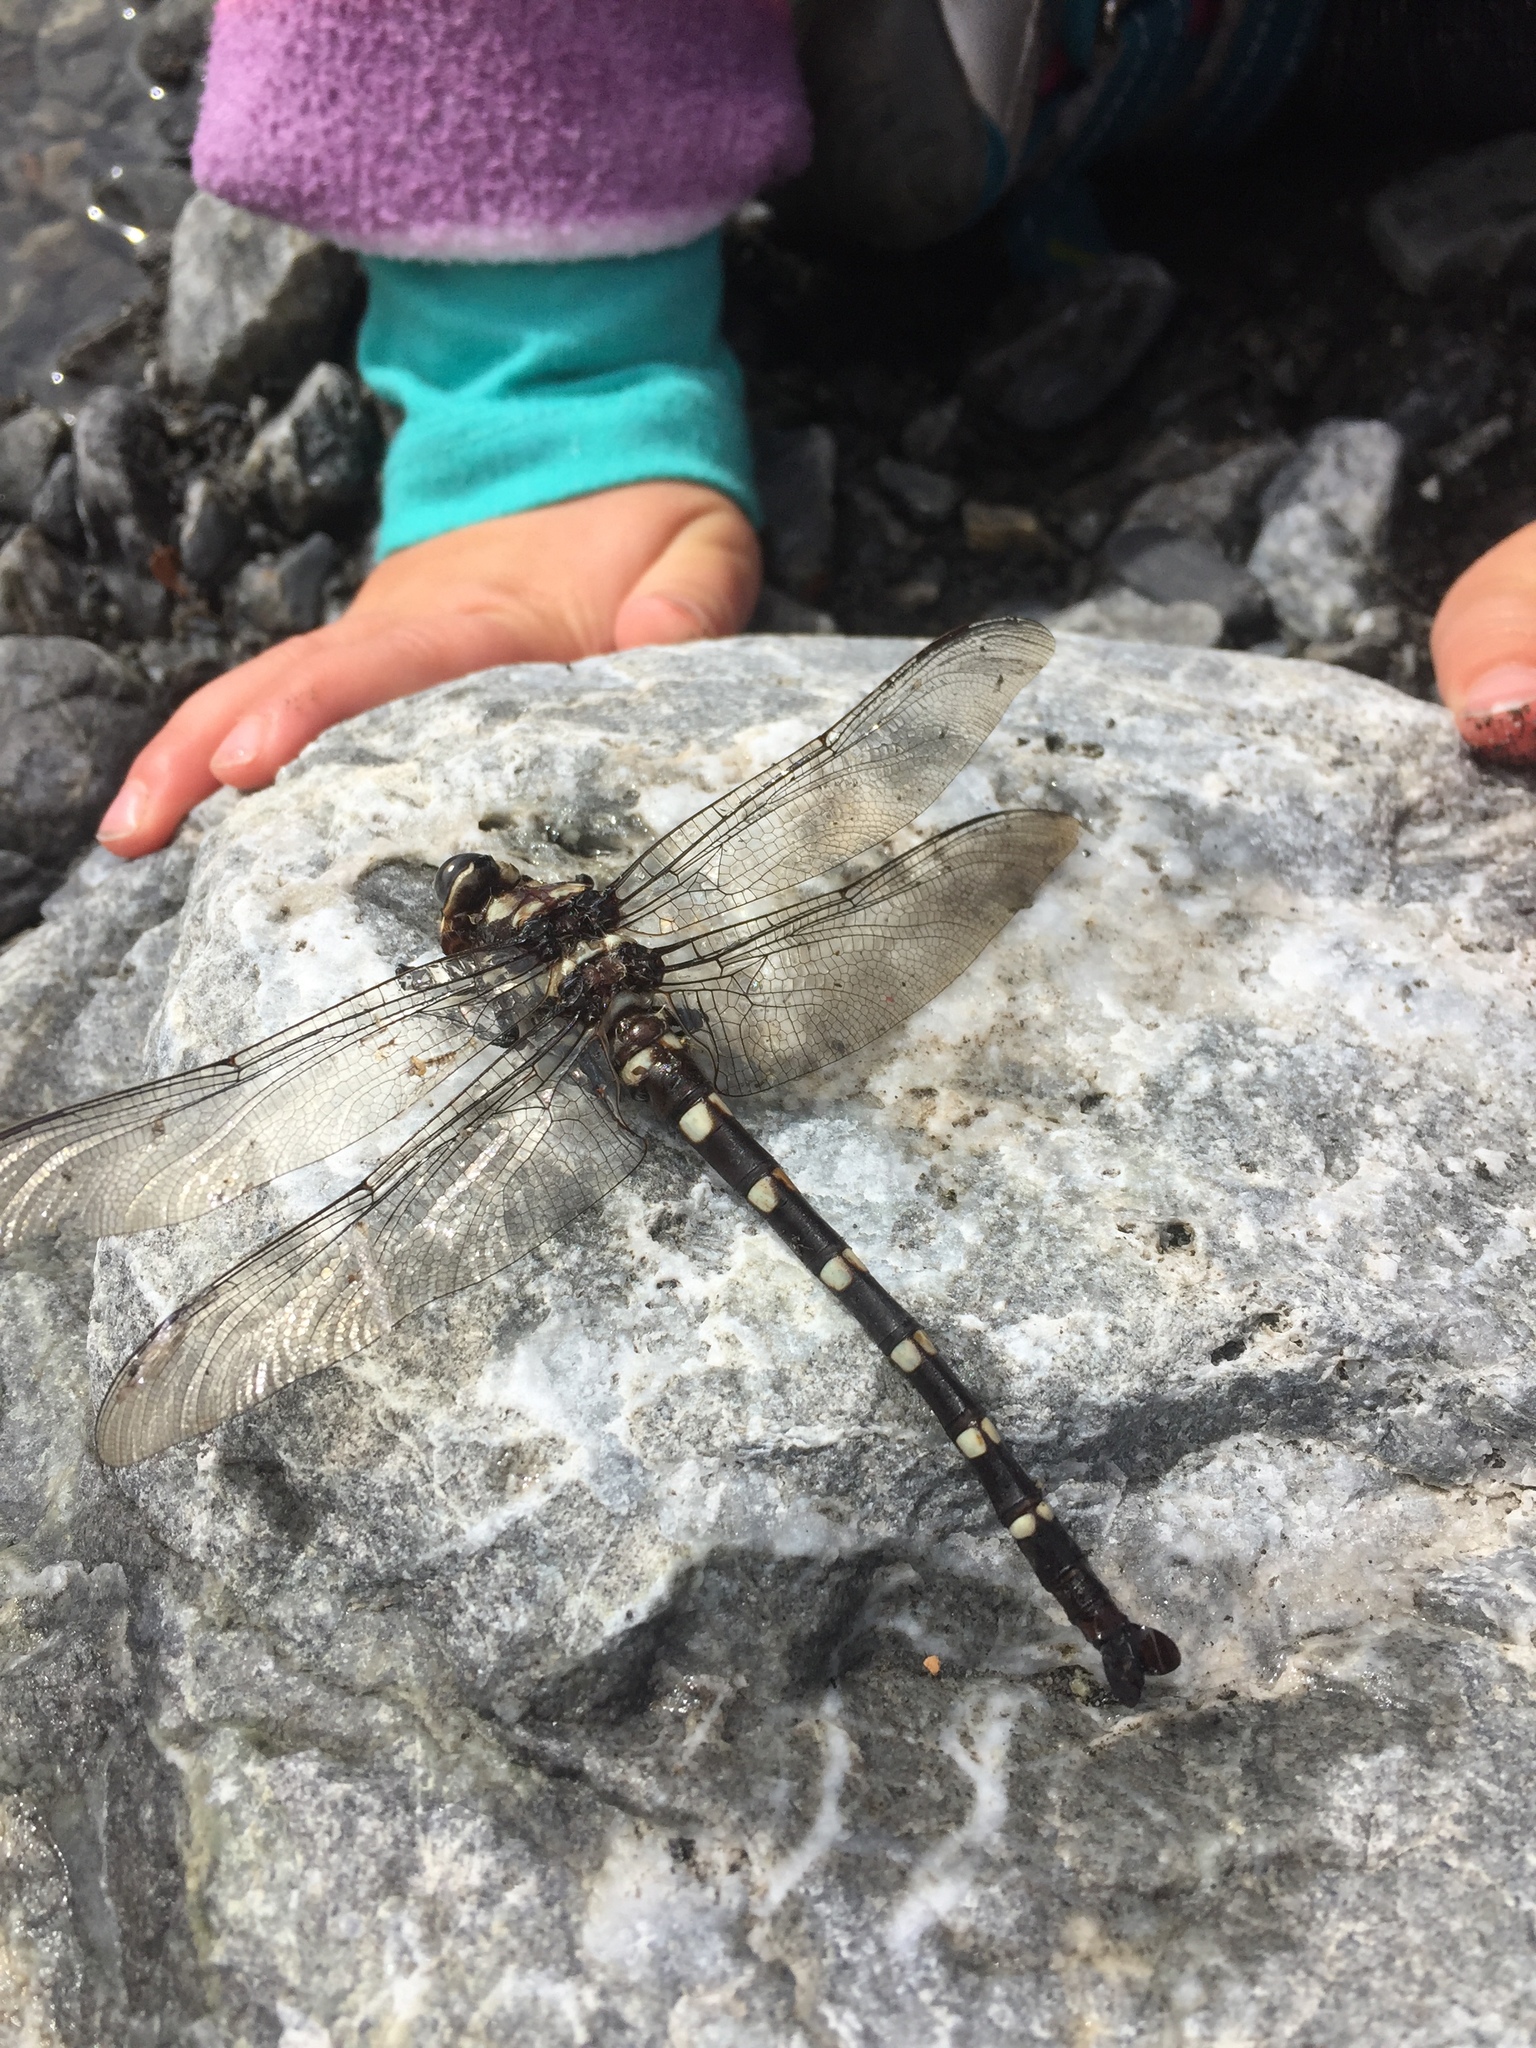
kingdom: Animalia
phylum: Arthropoda
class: Insecta
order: Odonata
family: Petaluridae
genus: Uropetala
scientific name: Uropetala chiltoni
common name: Mountain giant dragonfly
